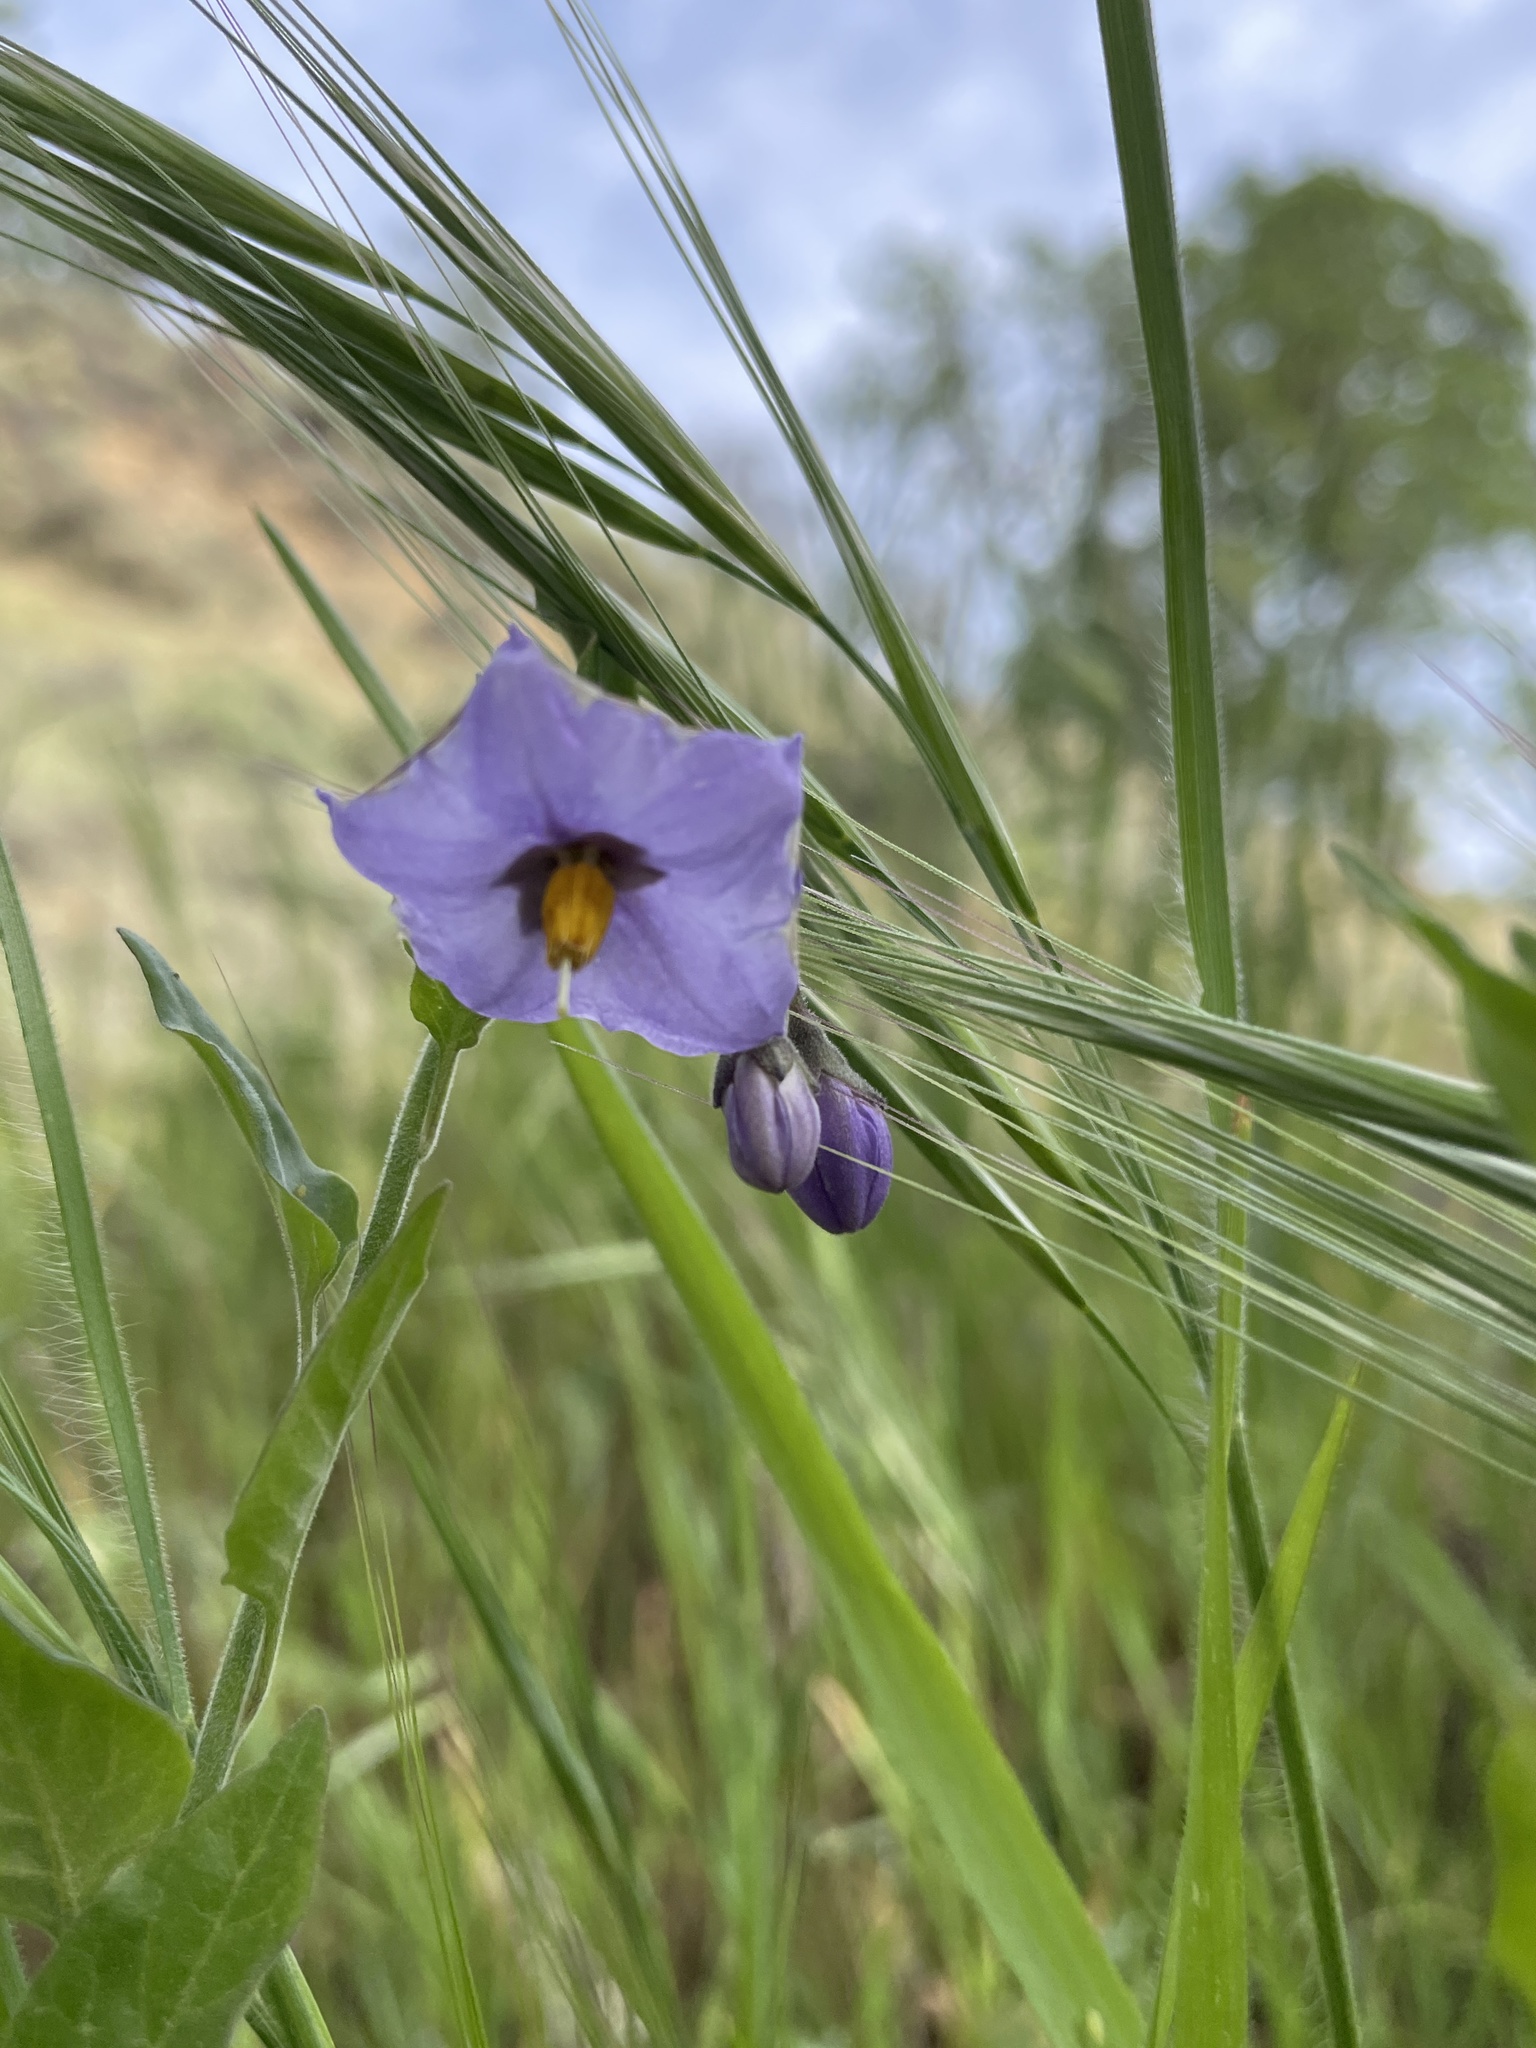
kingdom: Plantae
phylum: Tracheophyta
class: Magnoliopsida
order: Solanales
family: Solanaceae
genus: Solanum
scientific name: Solanum umbelliferum
